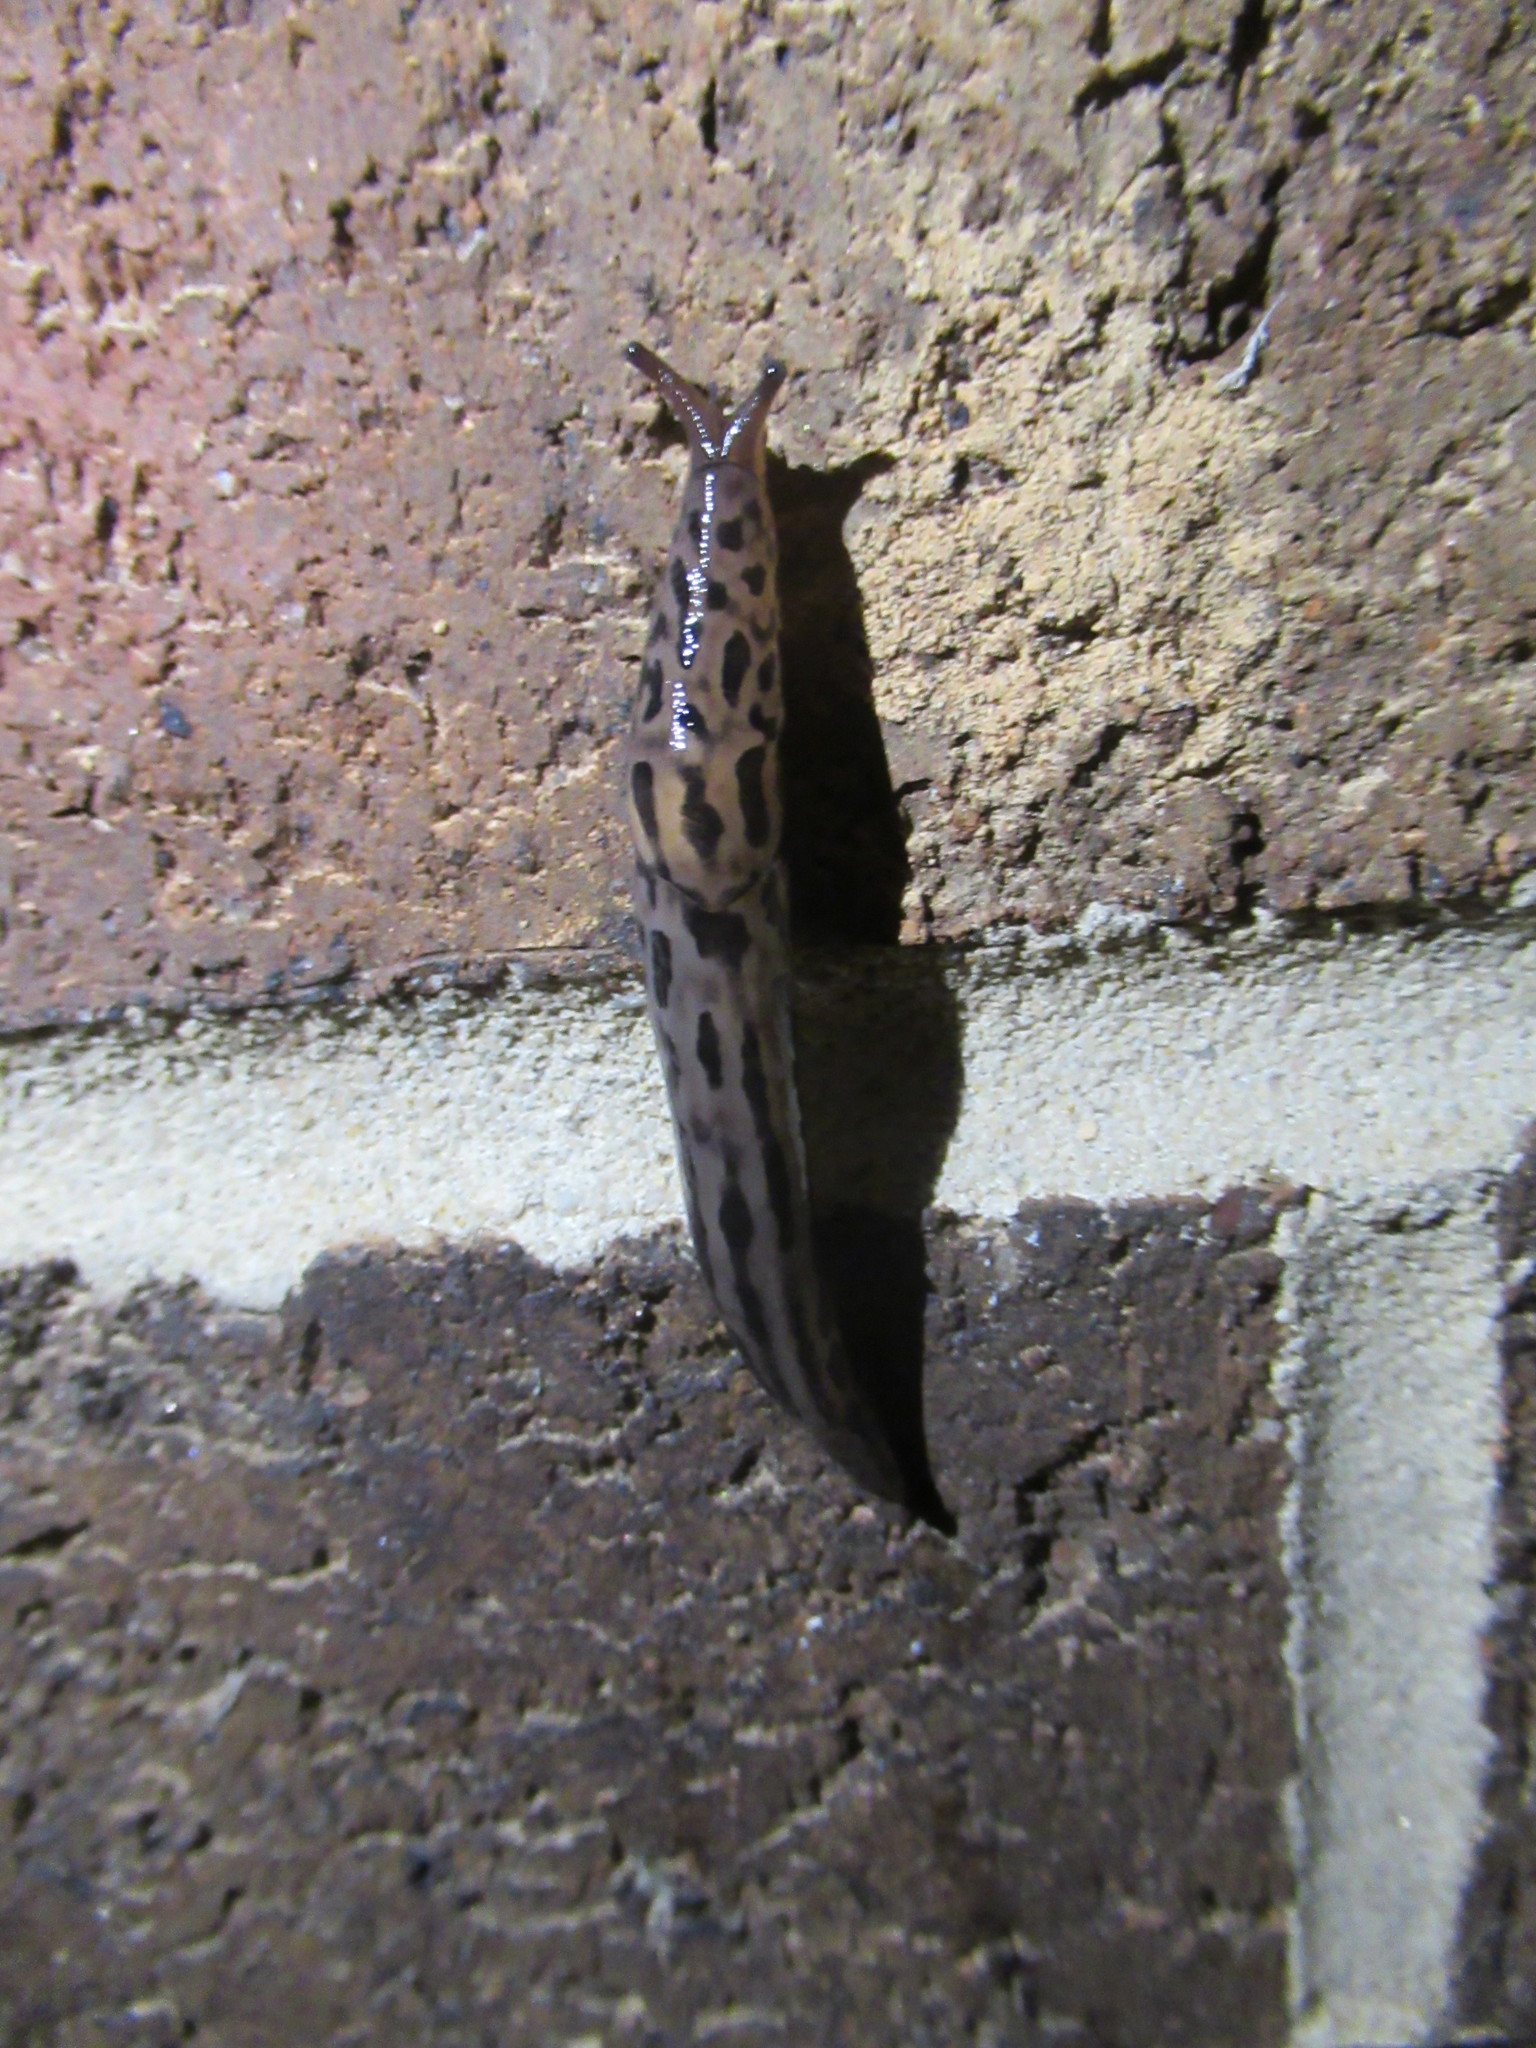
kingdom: Animalia
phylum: Mollusca
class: Gastropoda
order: Stylommatophora
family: Limacidae
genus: Limax
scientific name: Limax maximus
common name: Great grey slug
